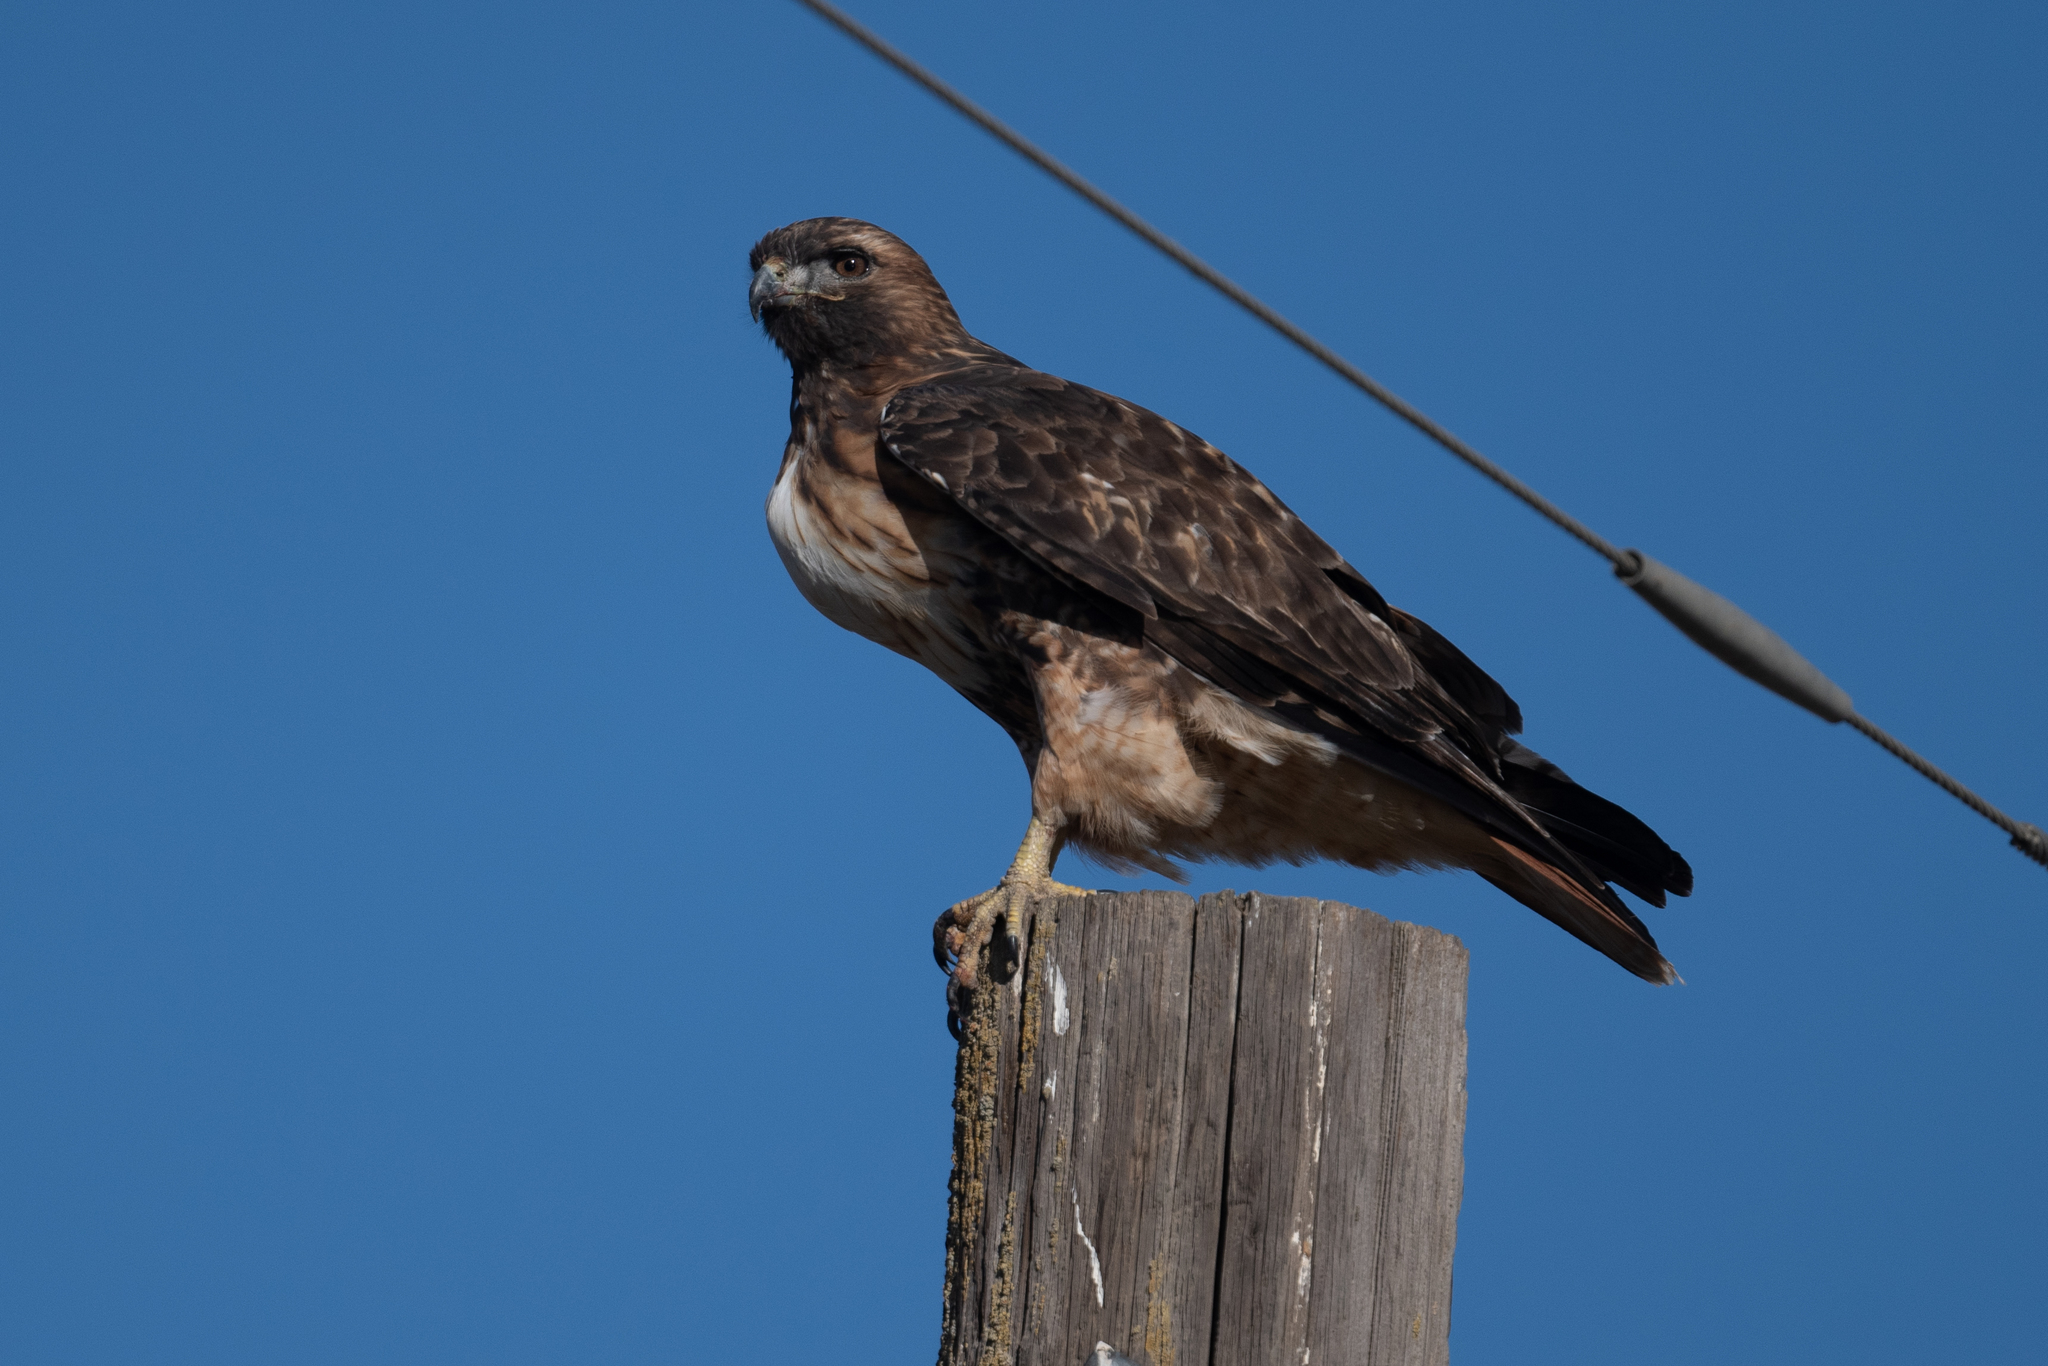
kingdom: Animalia
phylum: Chordata
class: Aves
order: Accipitriformes
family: Accipitridae
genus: Buteo
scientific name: Buteo jamaicensis
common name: Red-tailed hawk
